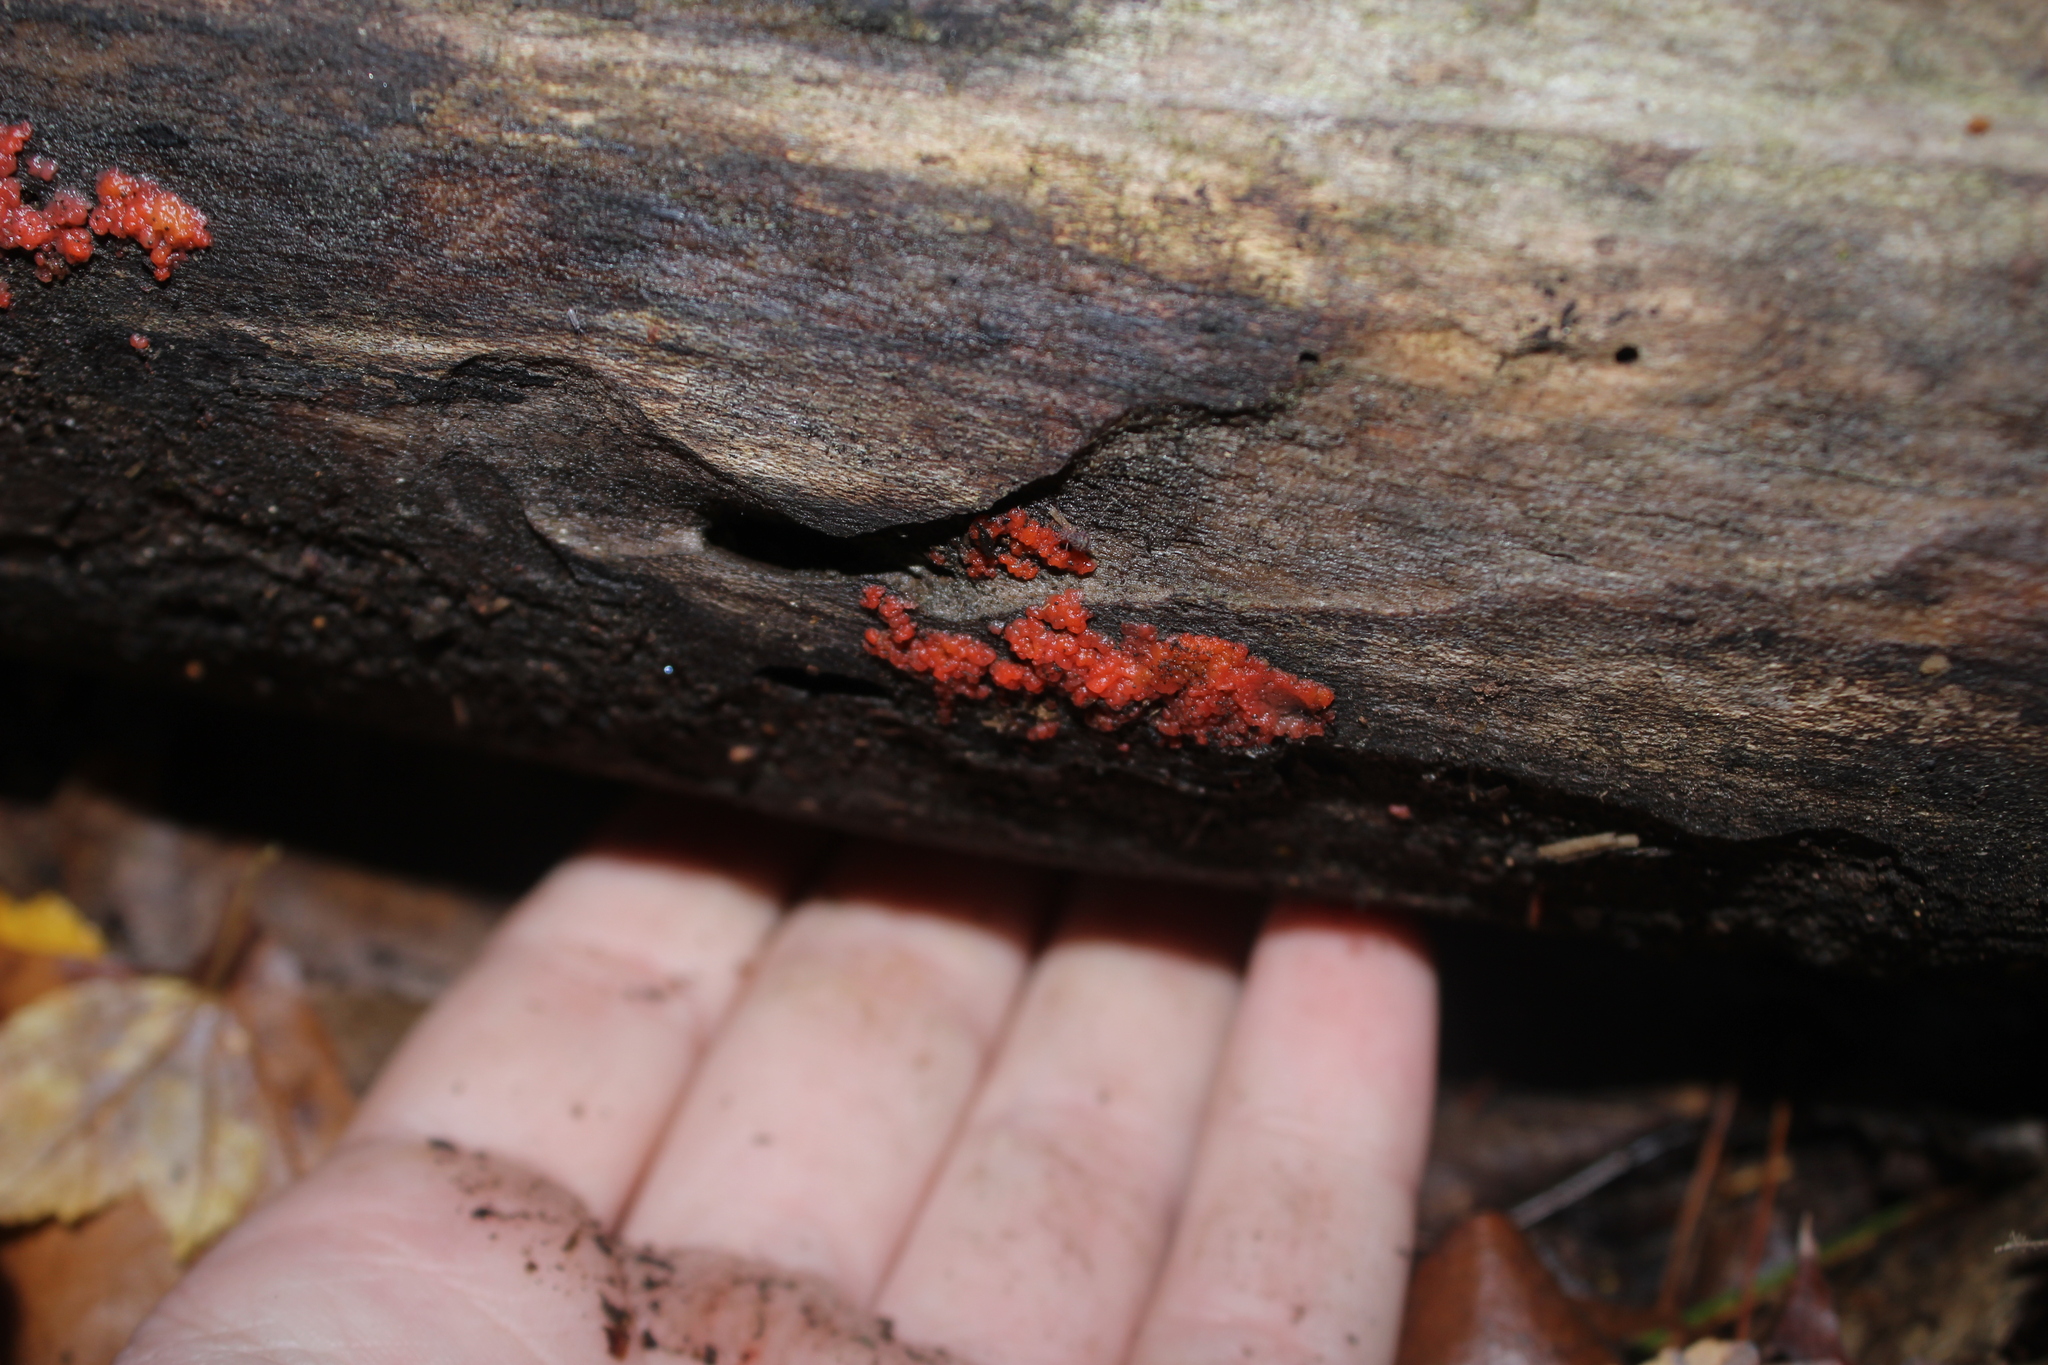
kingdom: Fungi
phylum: Basidiomycota
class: Agaricomycetes
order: Cantharellales
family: Tulasnellaceae
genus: Tulasnella
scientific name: Tulasnella aurantiaca
